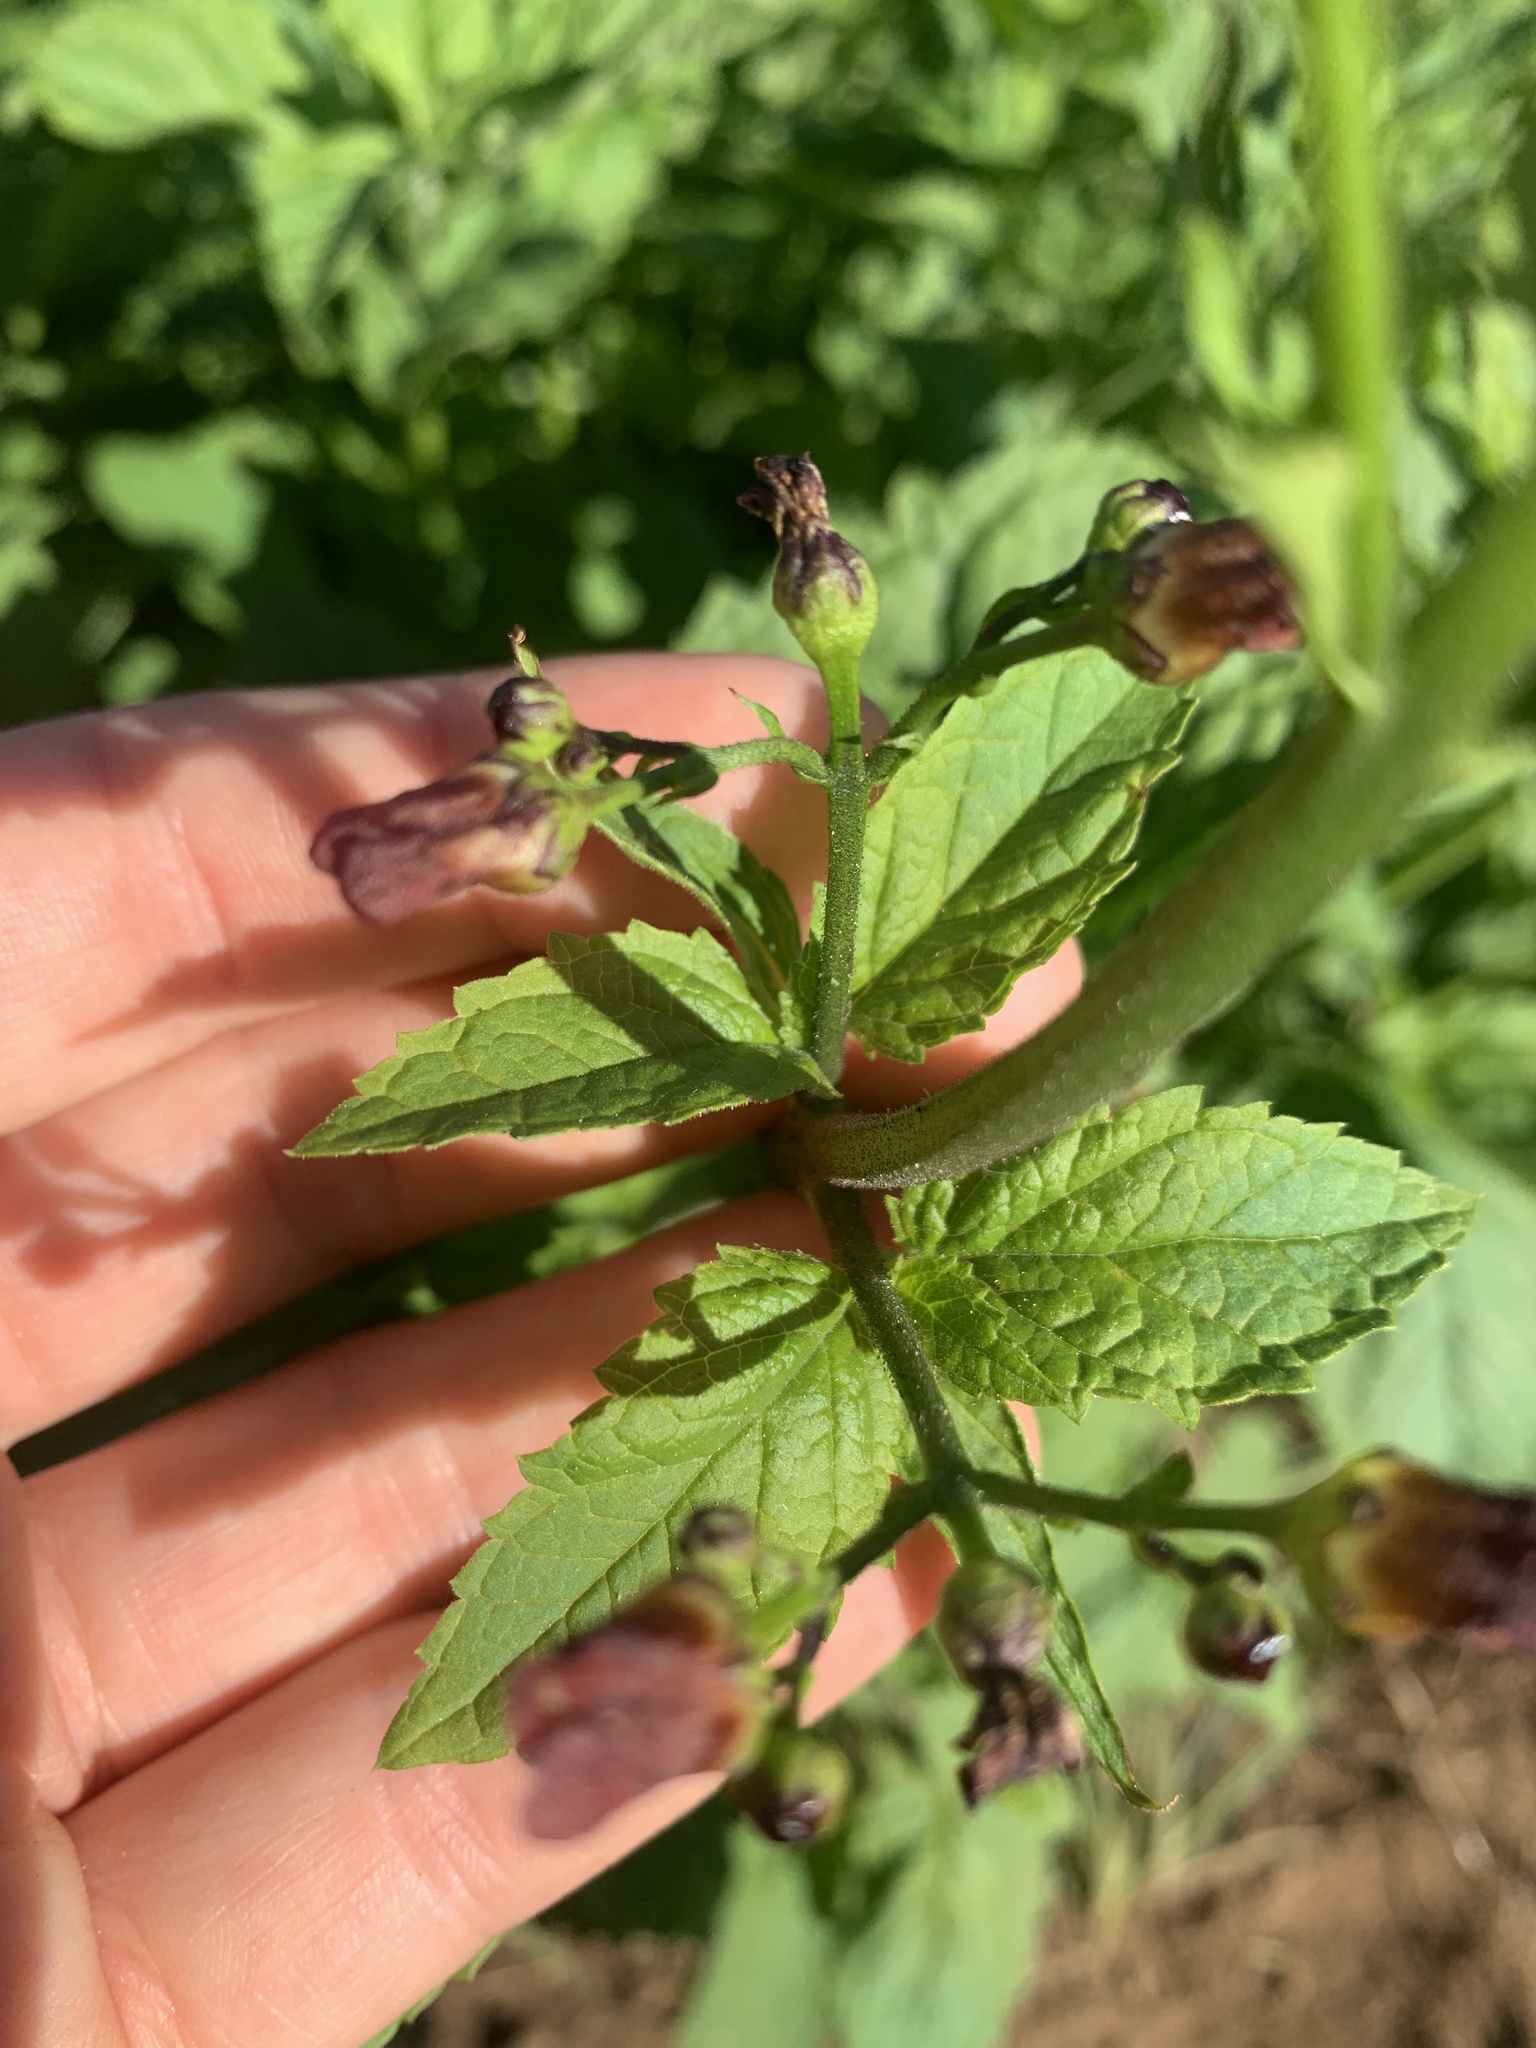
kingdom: Plantae
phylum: Tracheophyta
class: Magnoliopsida
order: Lamiales
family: Scrophulariaceae
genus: Scrophularia
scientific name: Scrophularia californica
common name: California figwort
